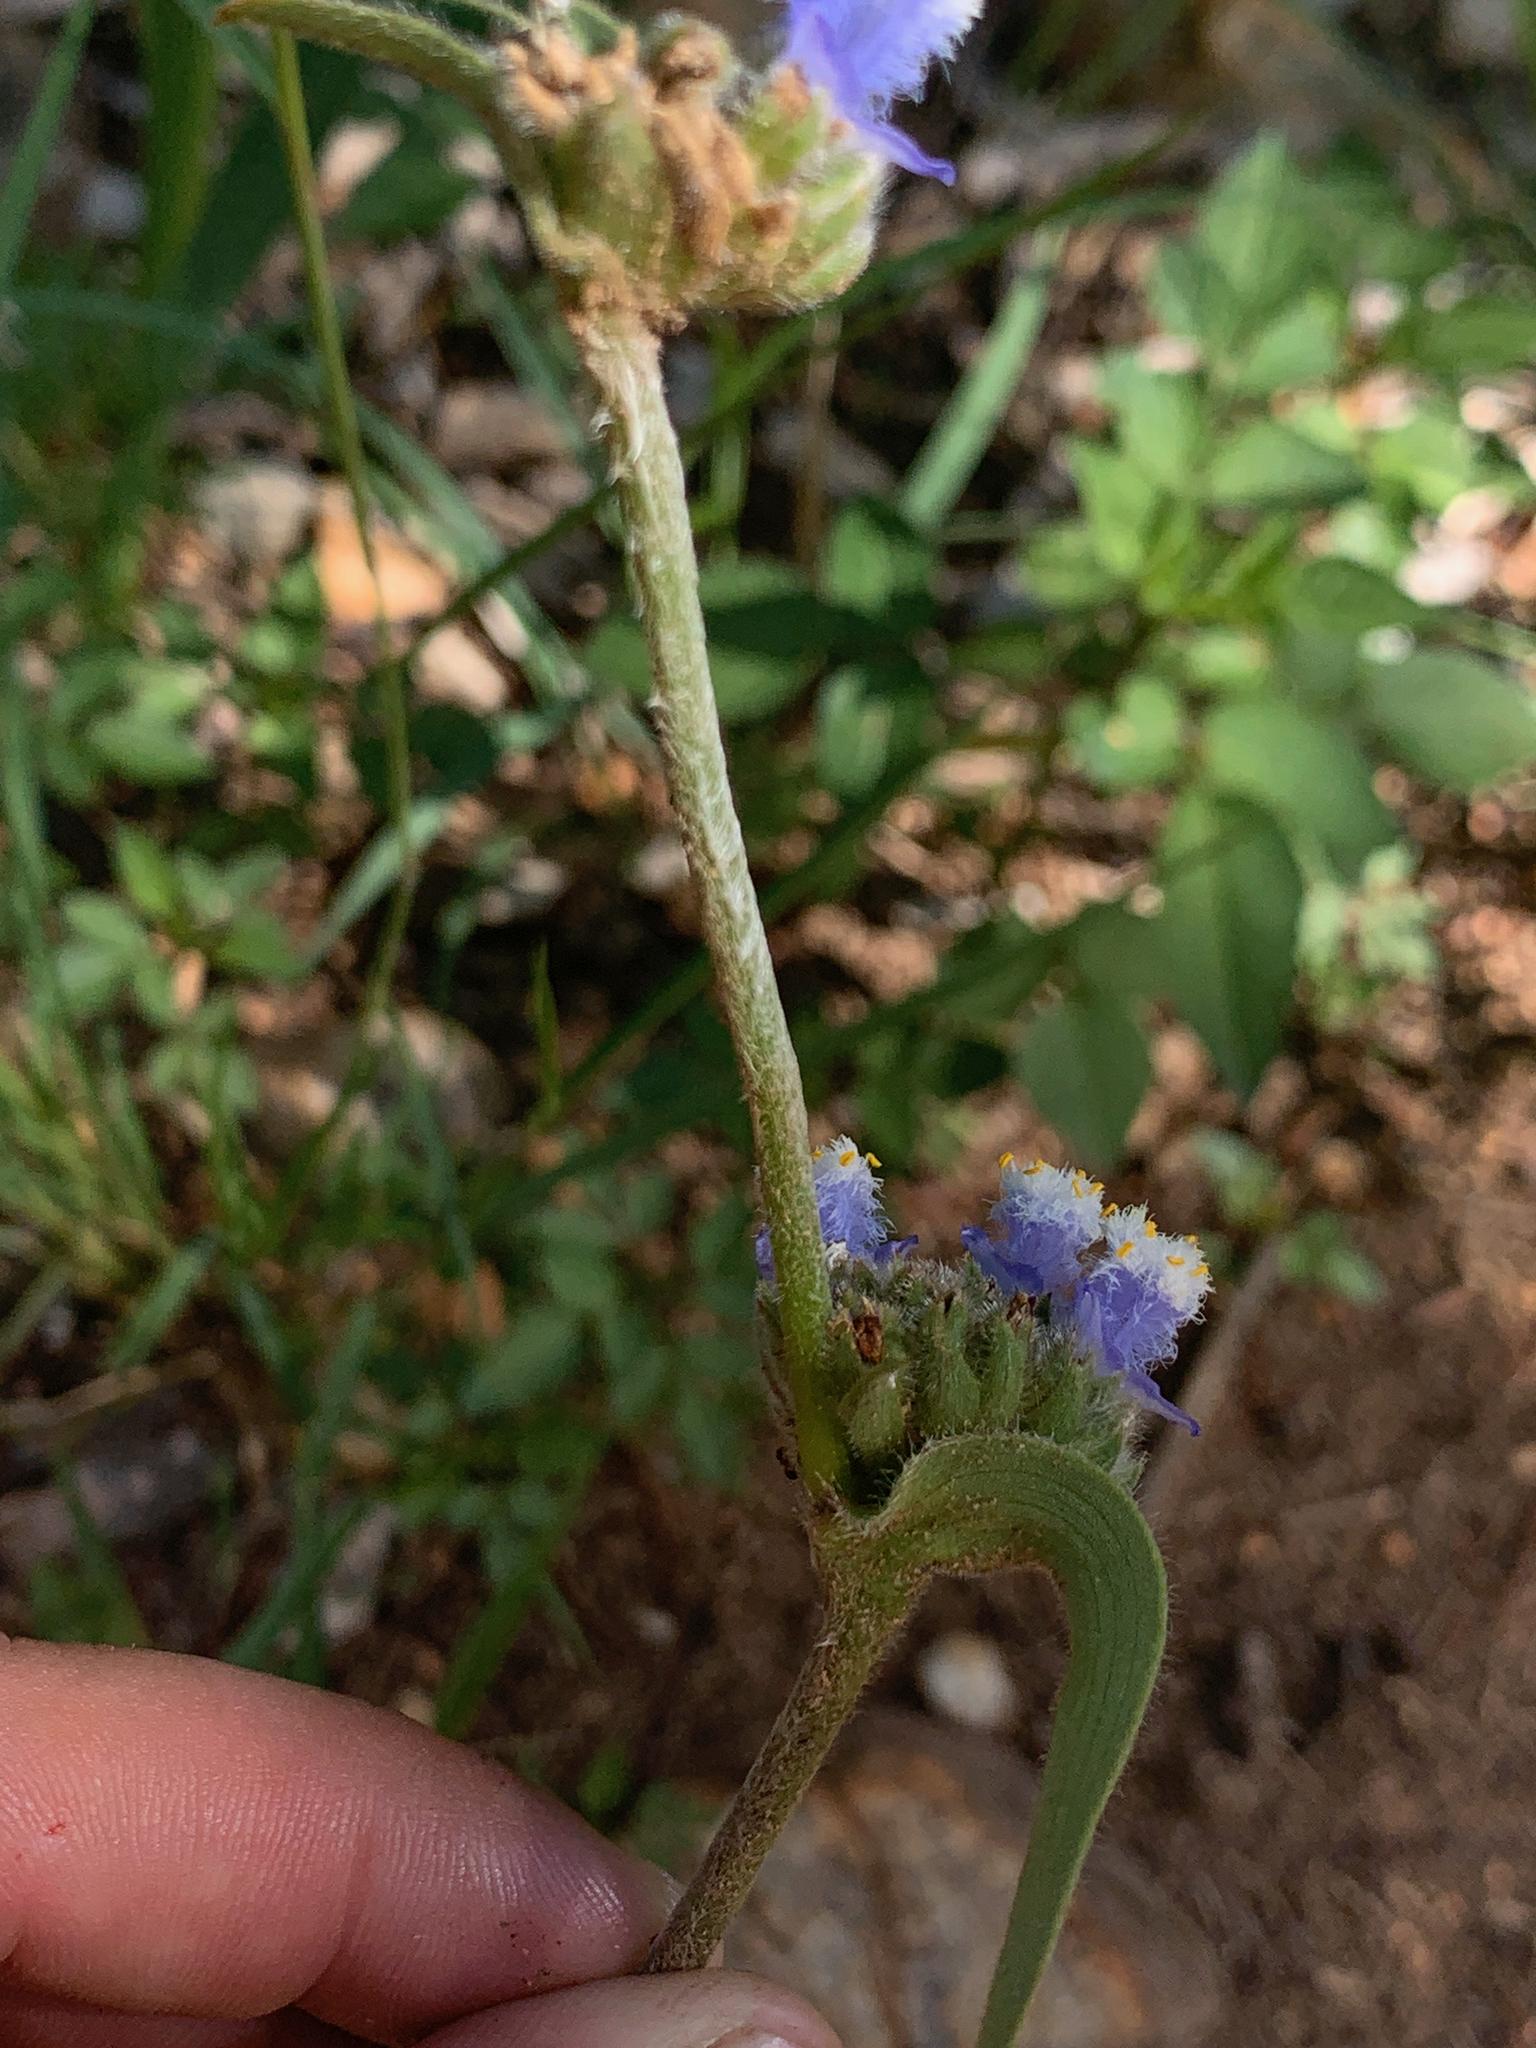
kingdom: Plantae
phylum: Tracheophyta
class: Liliopsida
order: Commelinales
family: Commelinaceae
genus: Cyanotis
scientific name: Cyanotis speciosa
